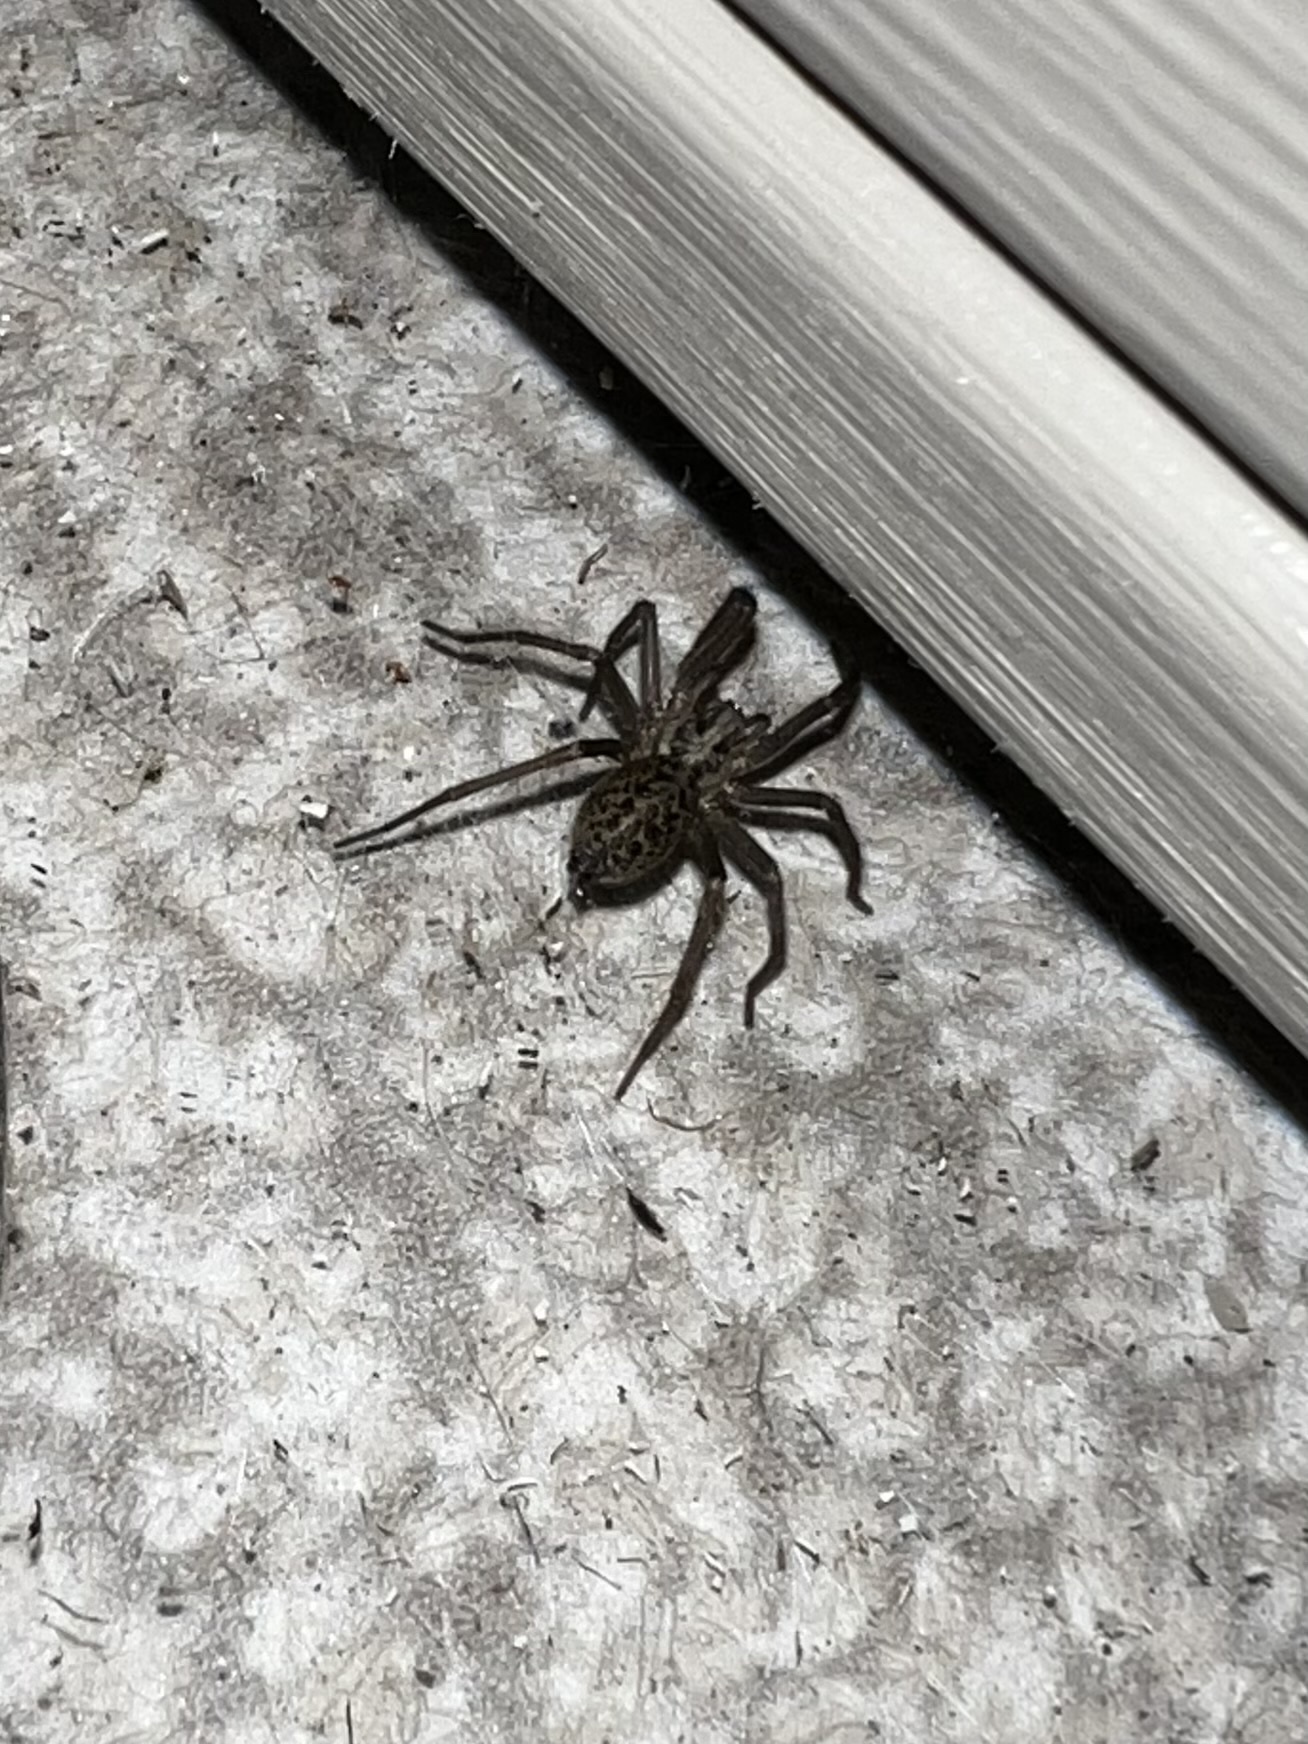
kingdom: Animalia
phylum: Arthropoda
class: Arachnida
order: Araneae
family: Agelenidae
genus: Eratigena
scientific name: Eratigena duellica
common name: Giant house spider
